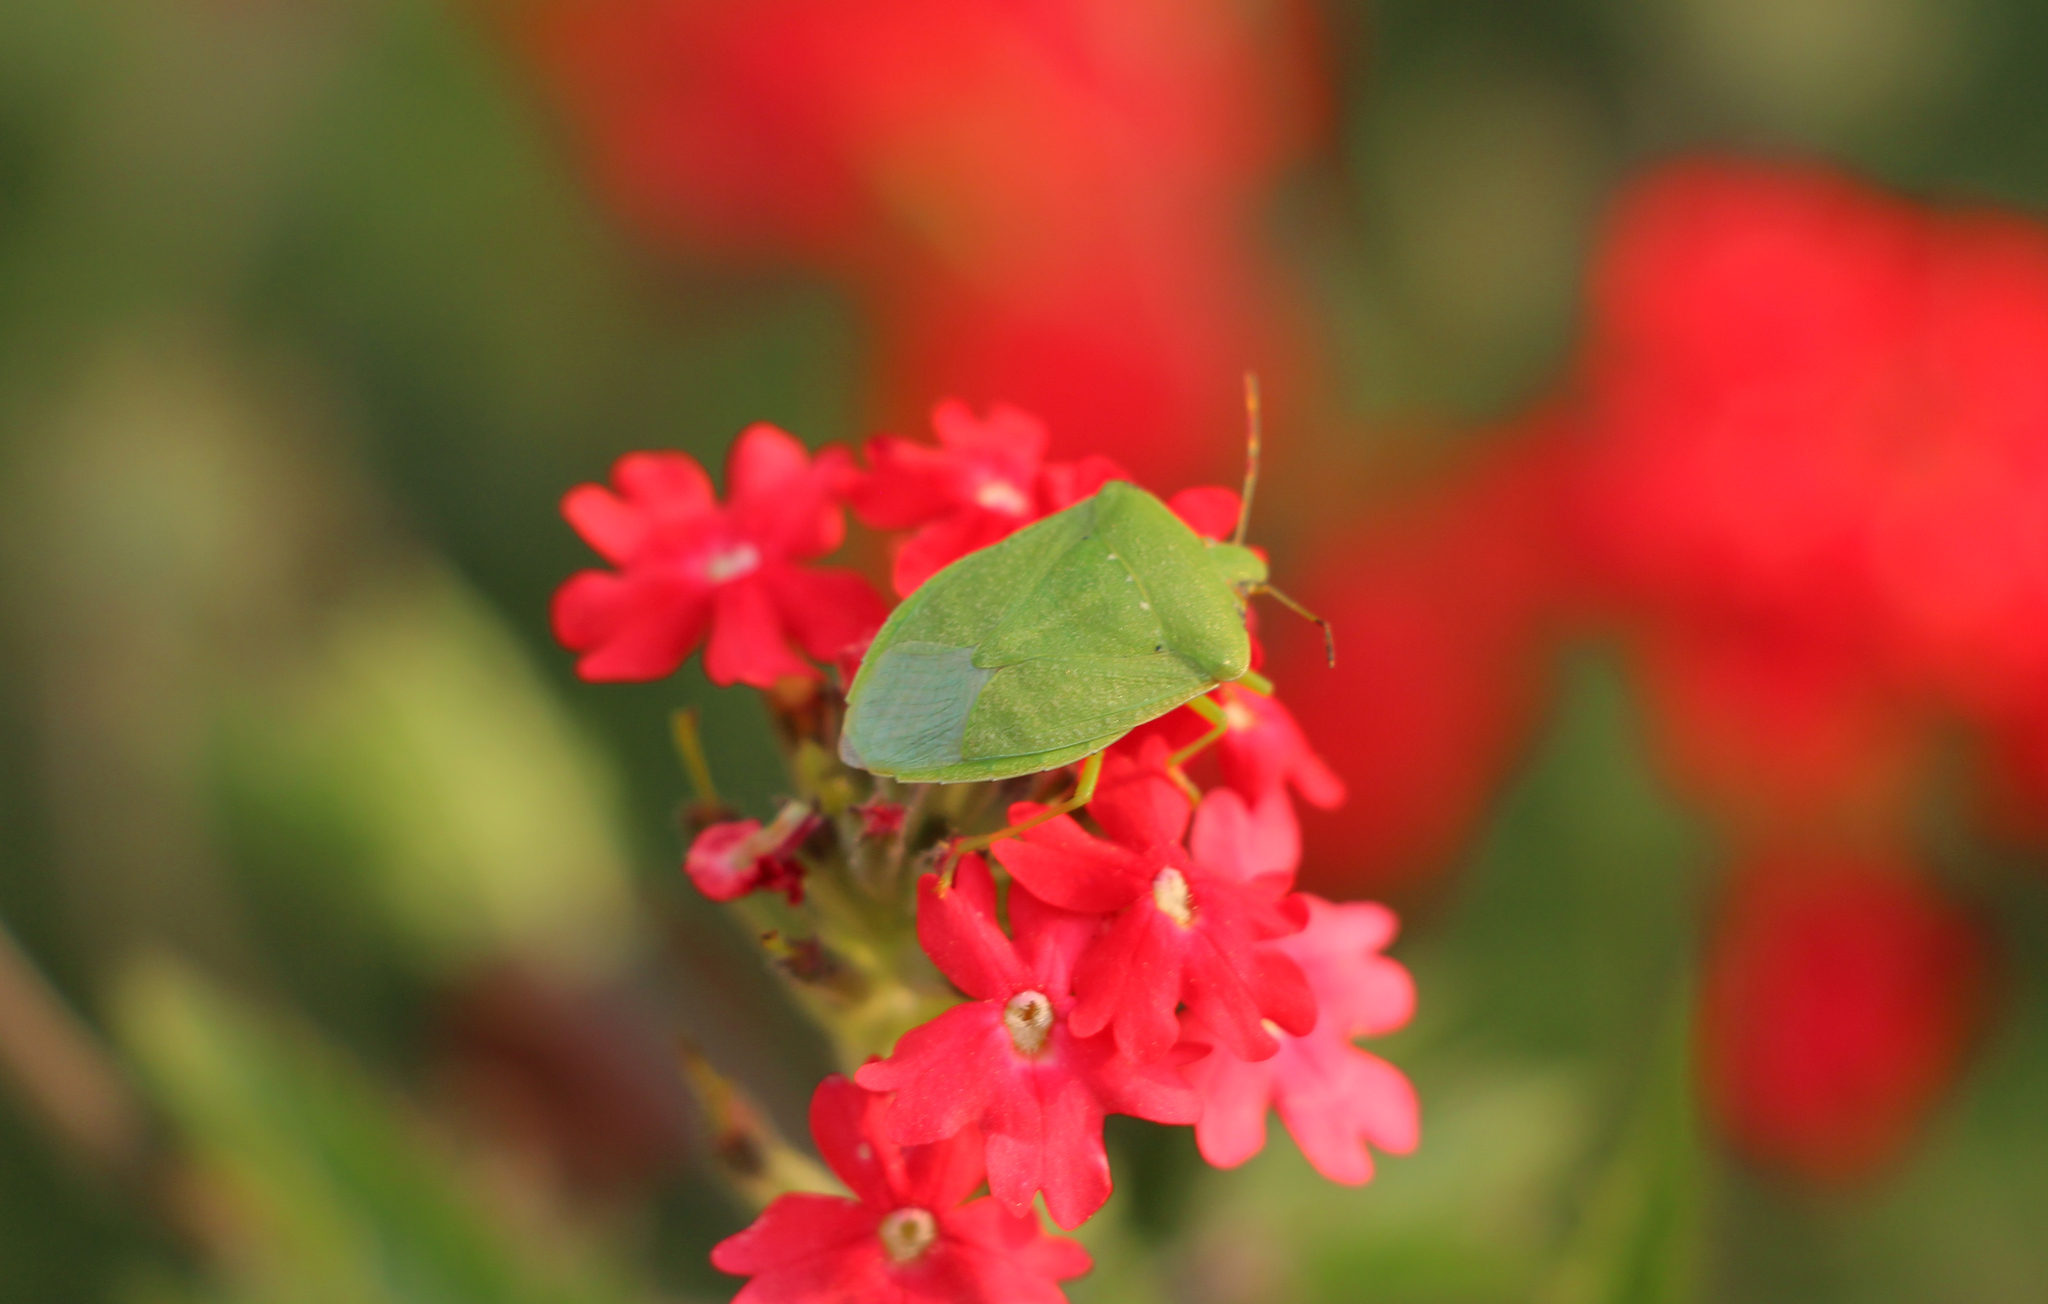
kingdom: Animalia
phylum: Arthropoda
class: Insecta
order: Hemiptera
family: Pentatomidae
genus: Nezara
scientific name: Nezara viridula
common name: Southern green stink bug
